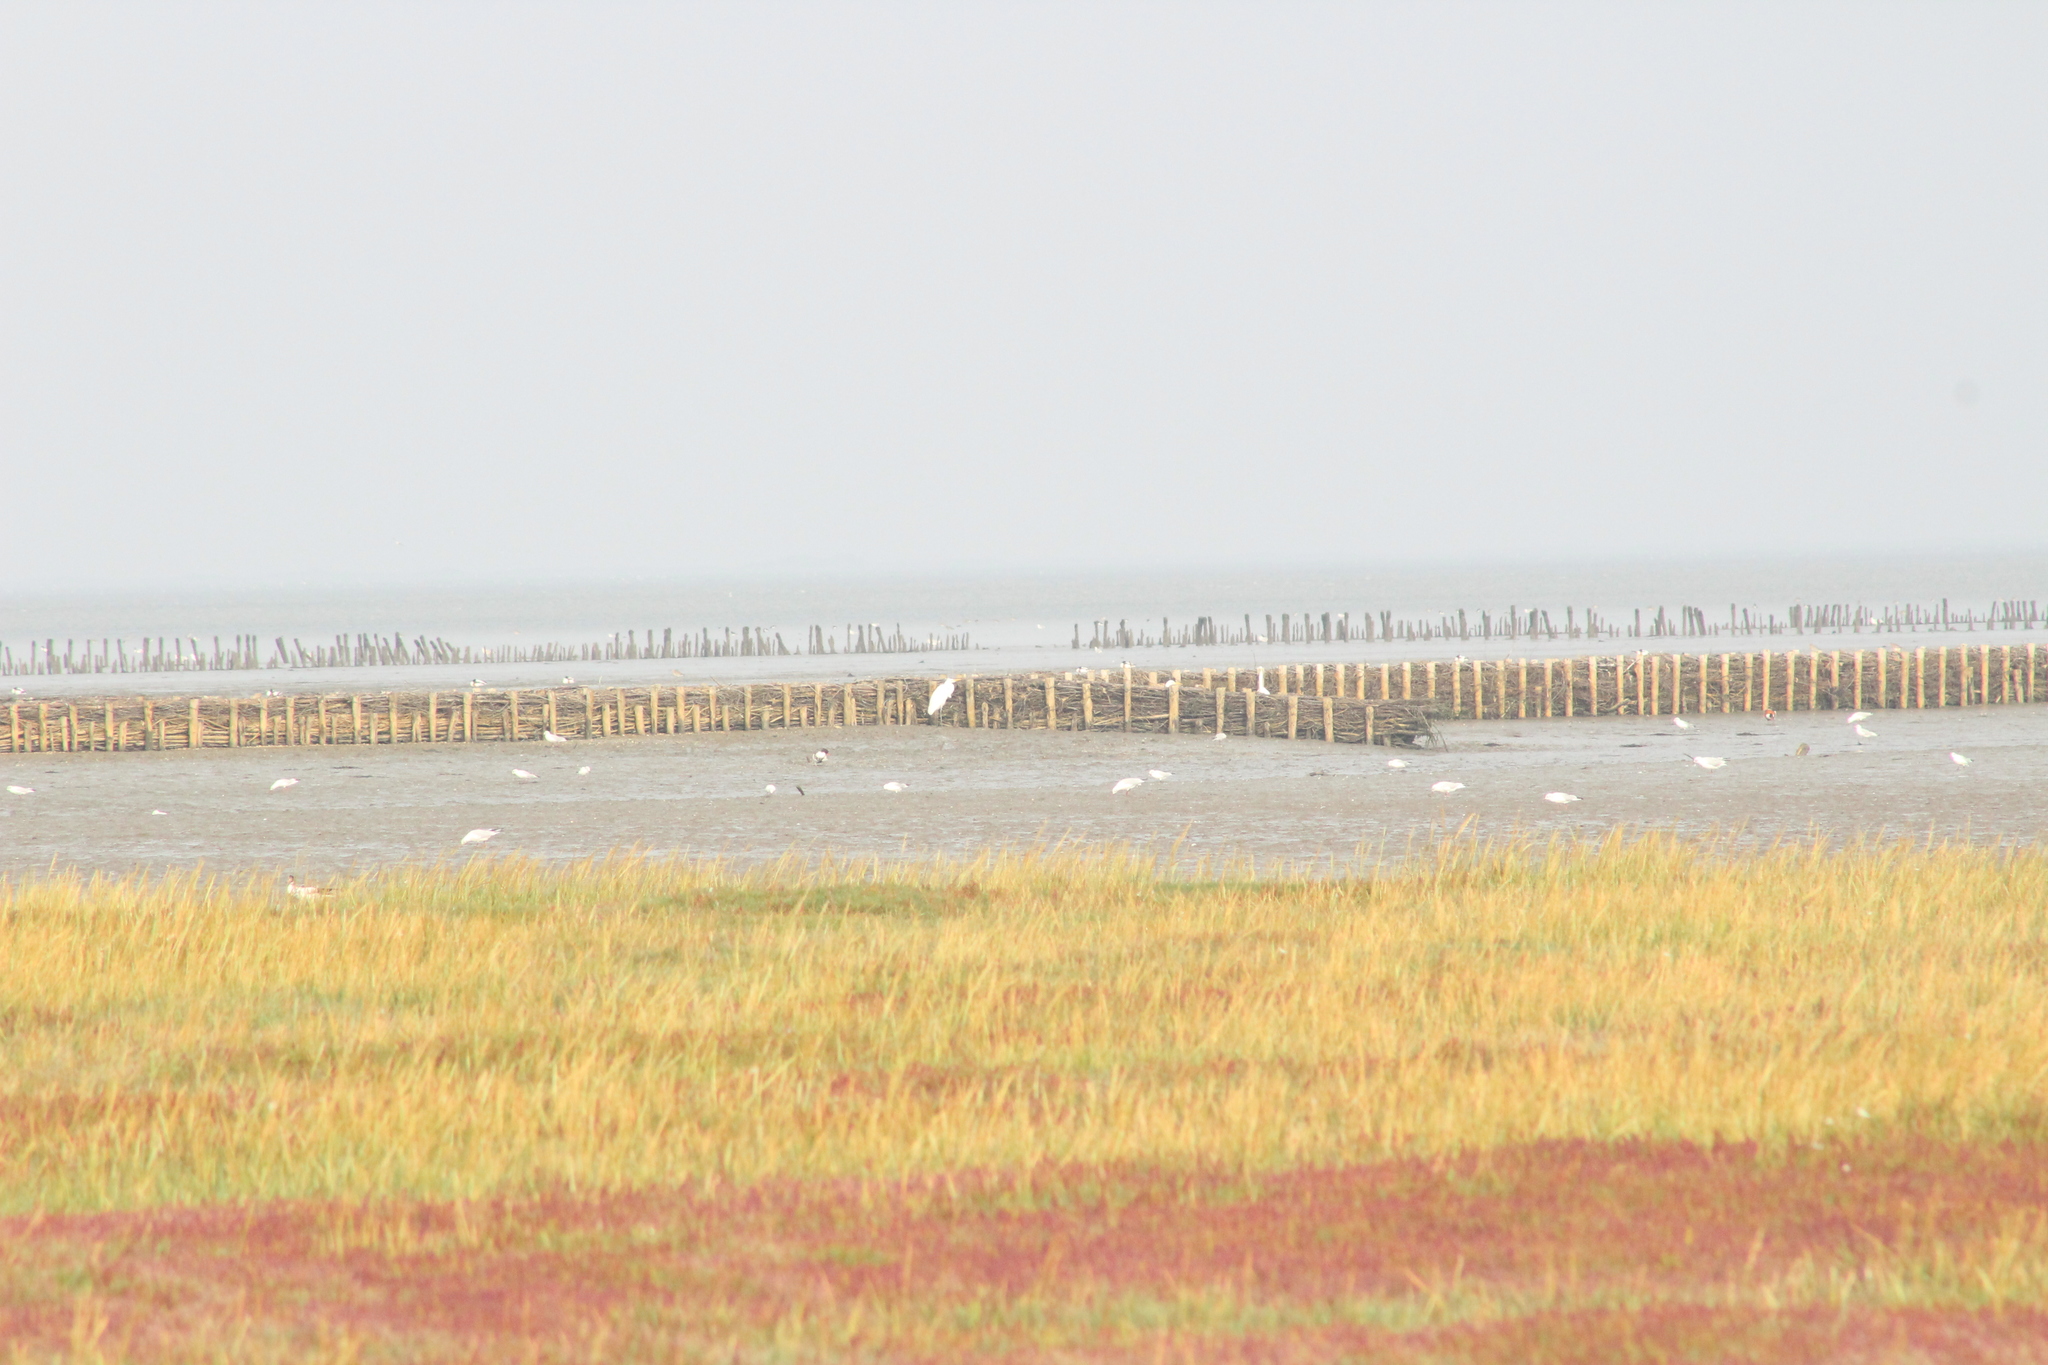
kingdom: Animalia
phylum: Chordata
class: Aves
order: Pelecaniformes
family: Ardeidae
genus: Ardea
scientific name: Ardea alba
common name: Great egret
